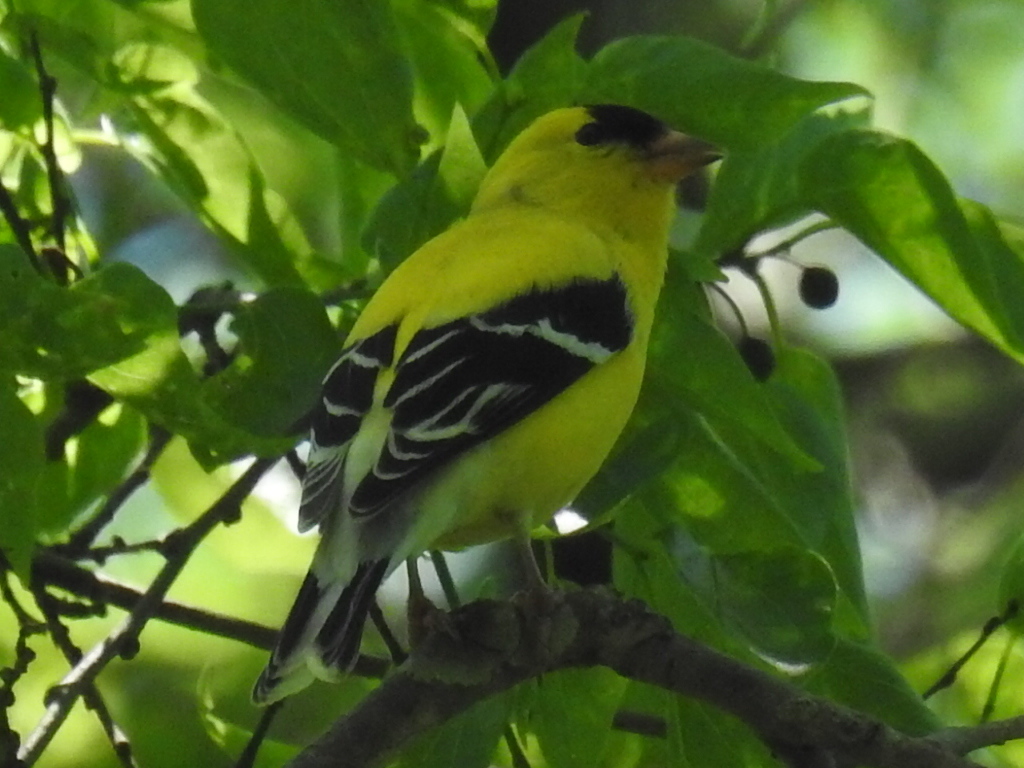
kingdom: Animalia
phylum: Chordata
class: Aves
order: Passeriformes
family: Fringillidae
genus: Spinus
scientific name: Spinus tristis
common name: American goldfinch
